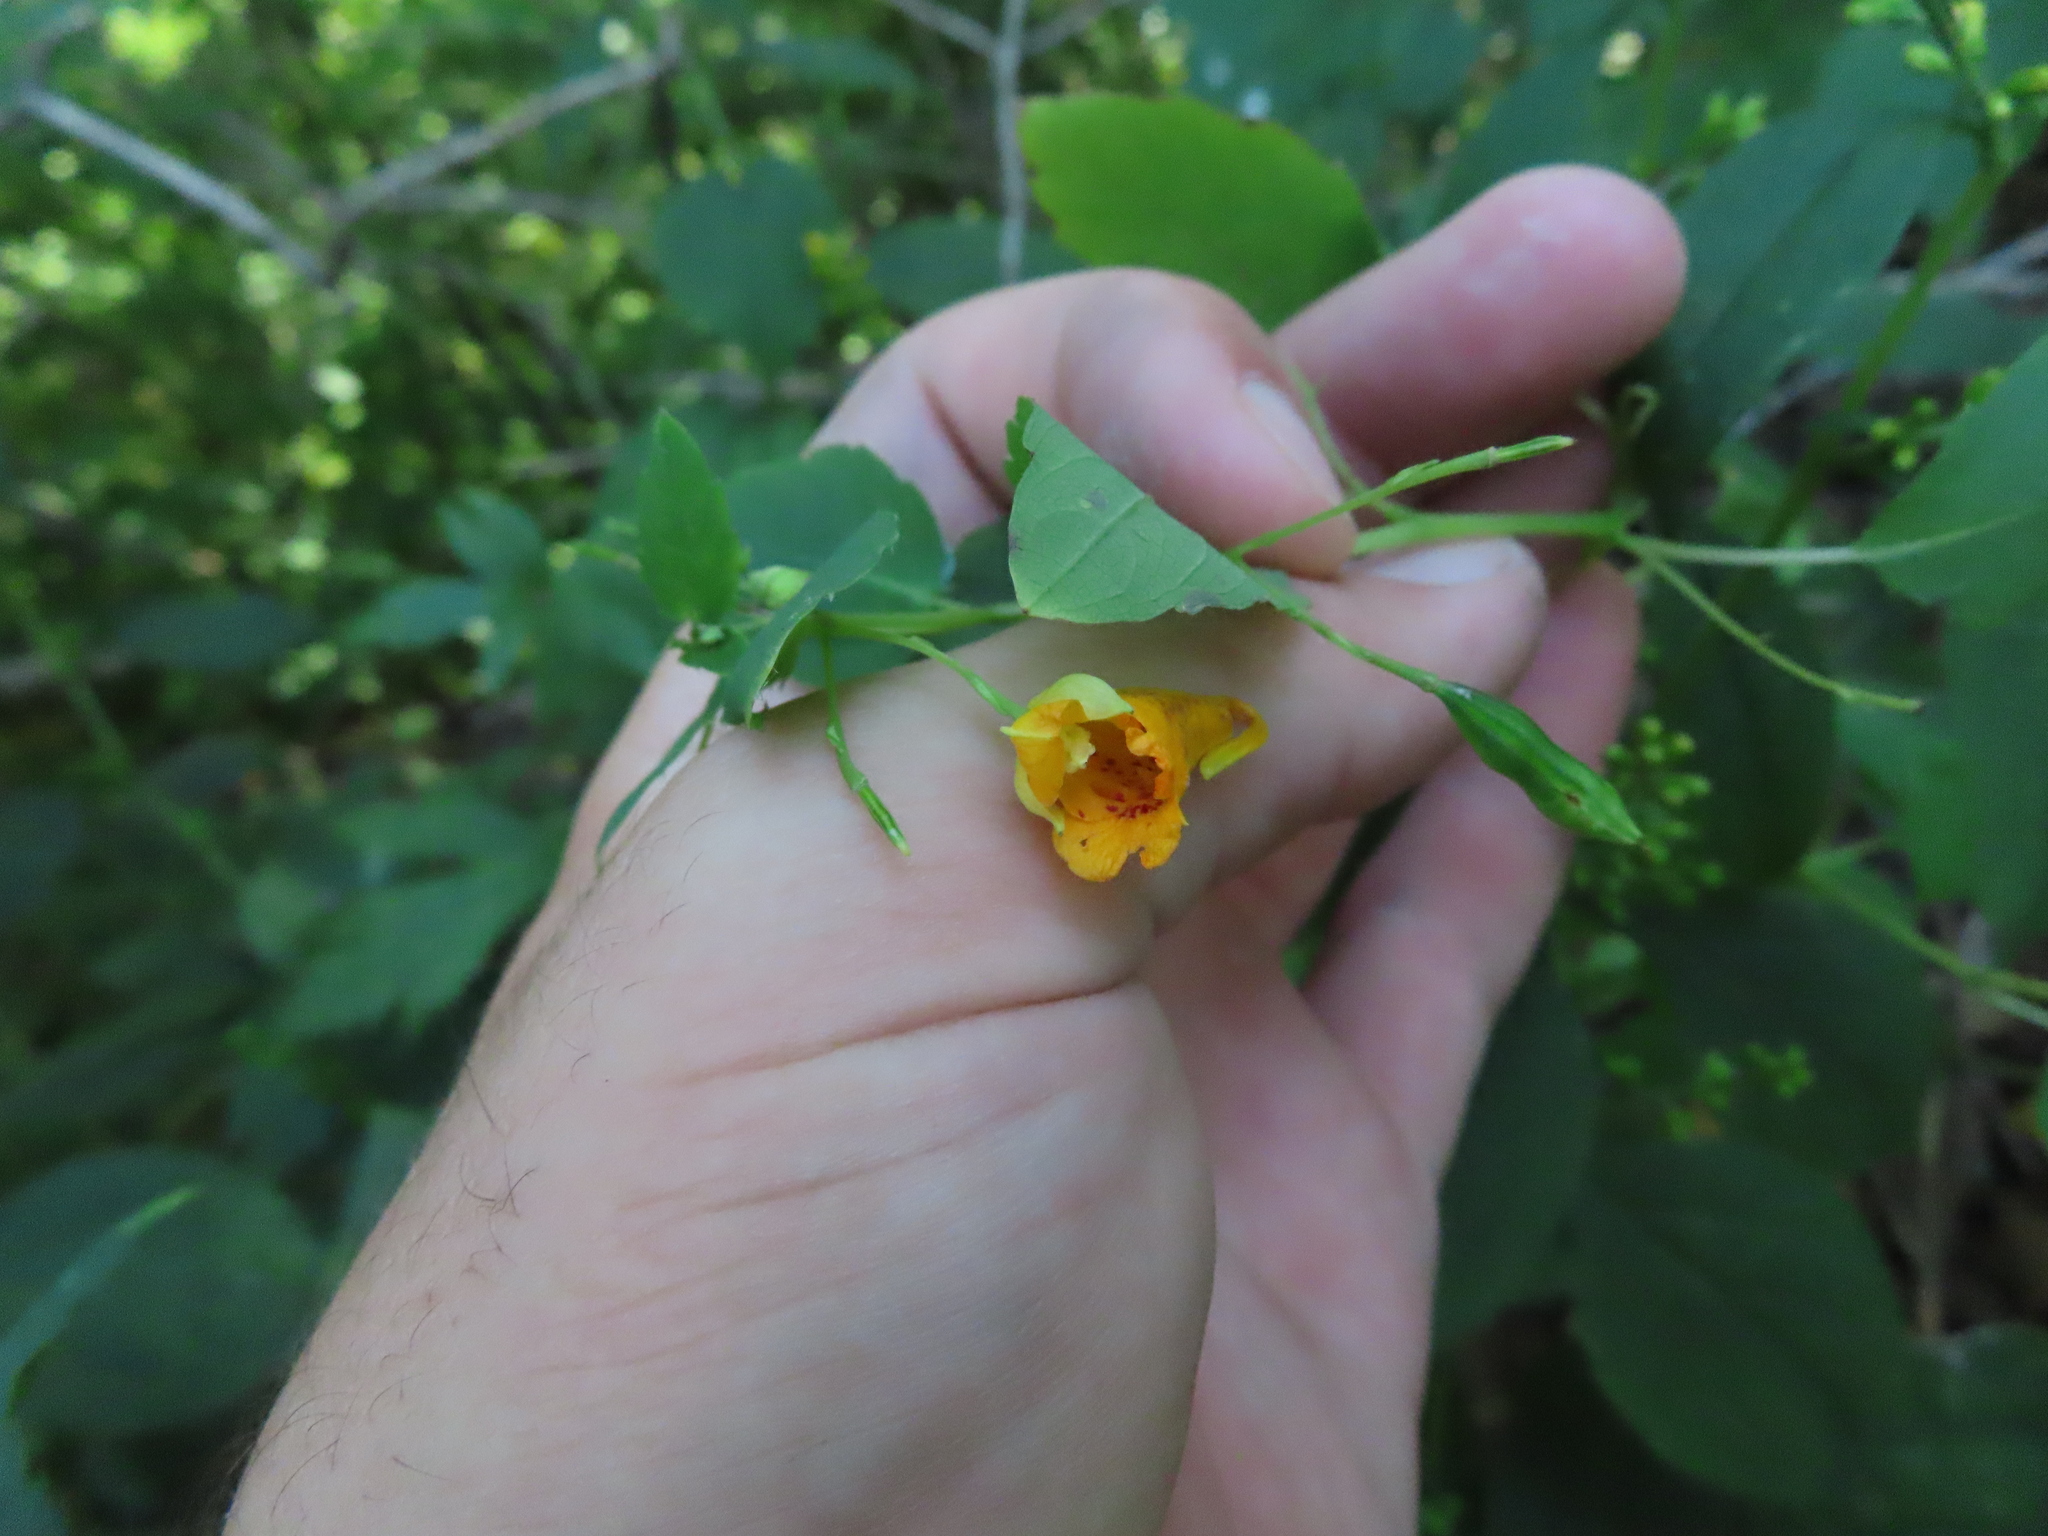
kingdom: Plantae
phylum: Tracheophyta
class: Magnoliopsida
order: Ericales
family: Balsaminaceae
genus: Impatiens
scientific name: Impatiens capensis
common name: Orange balsam
